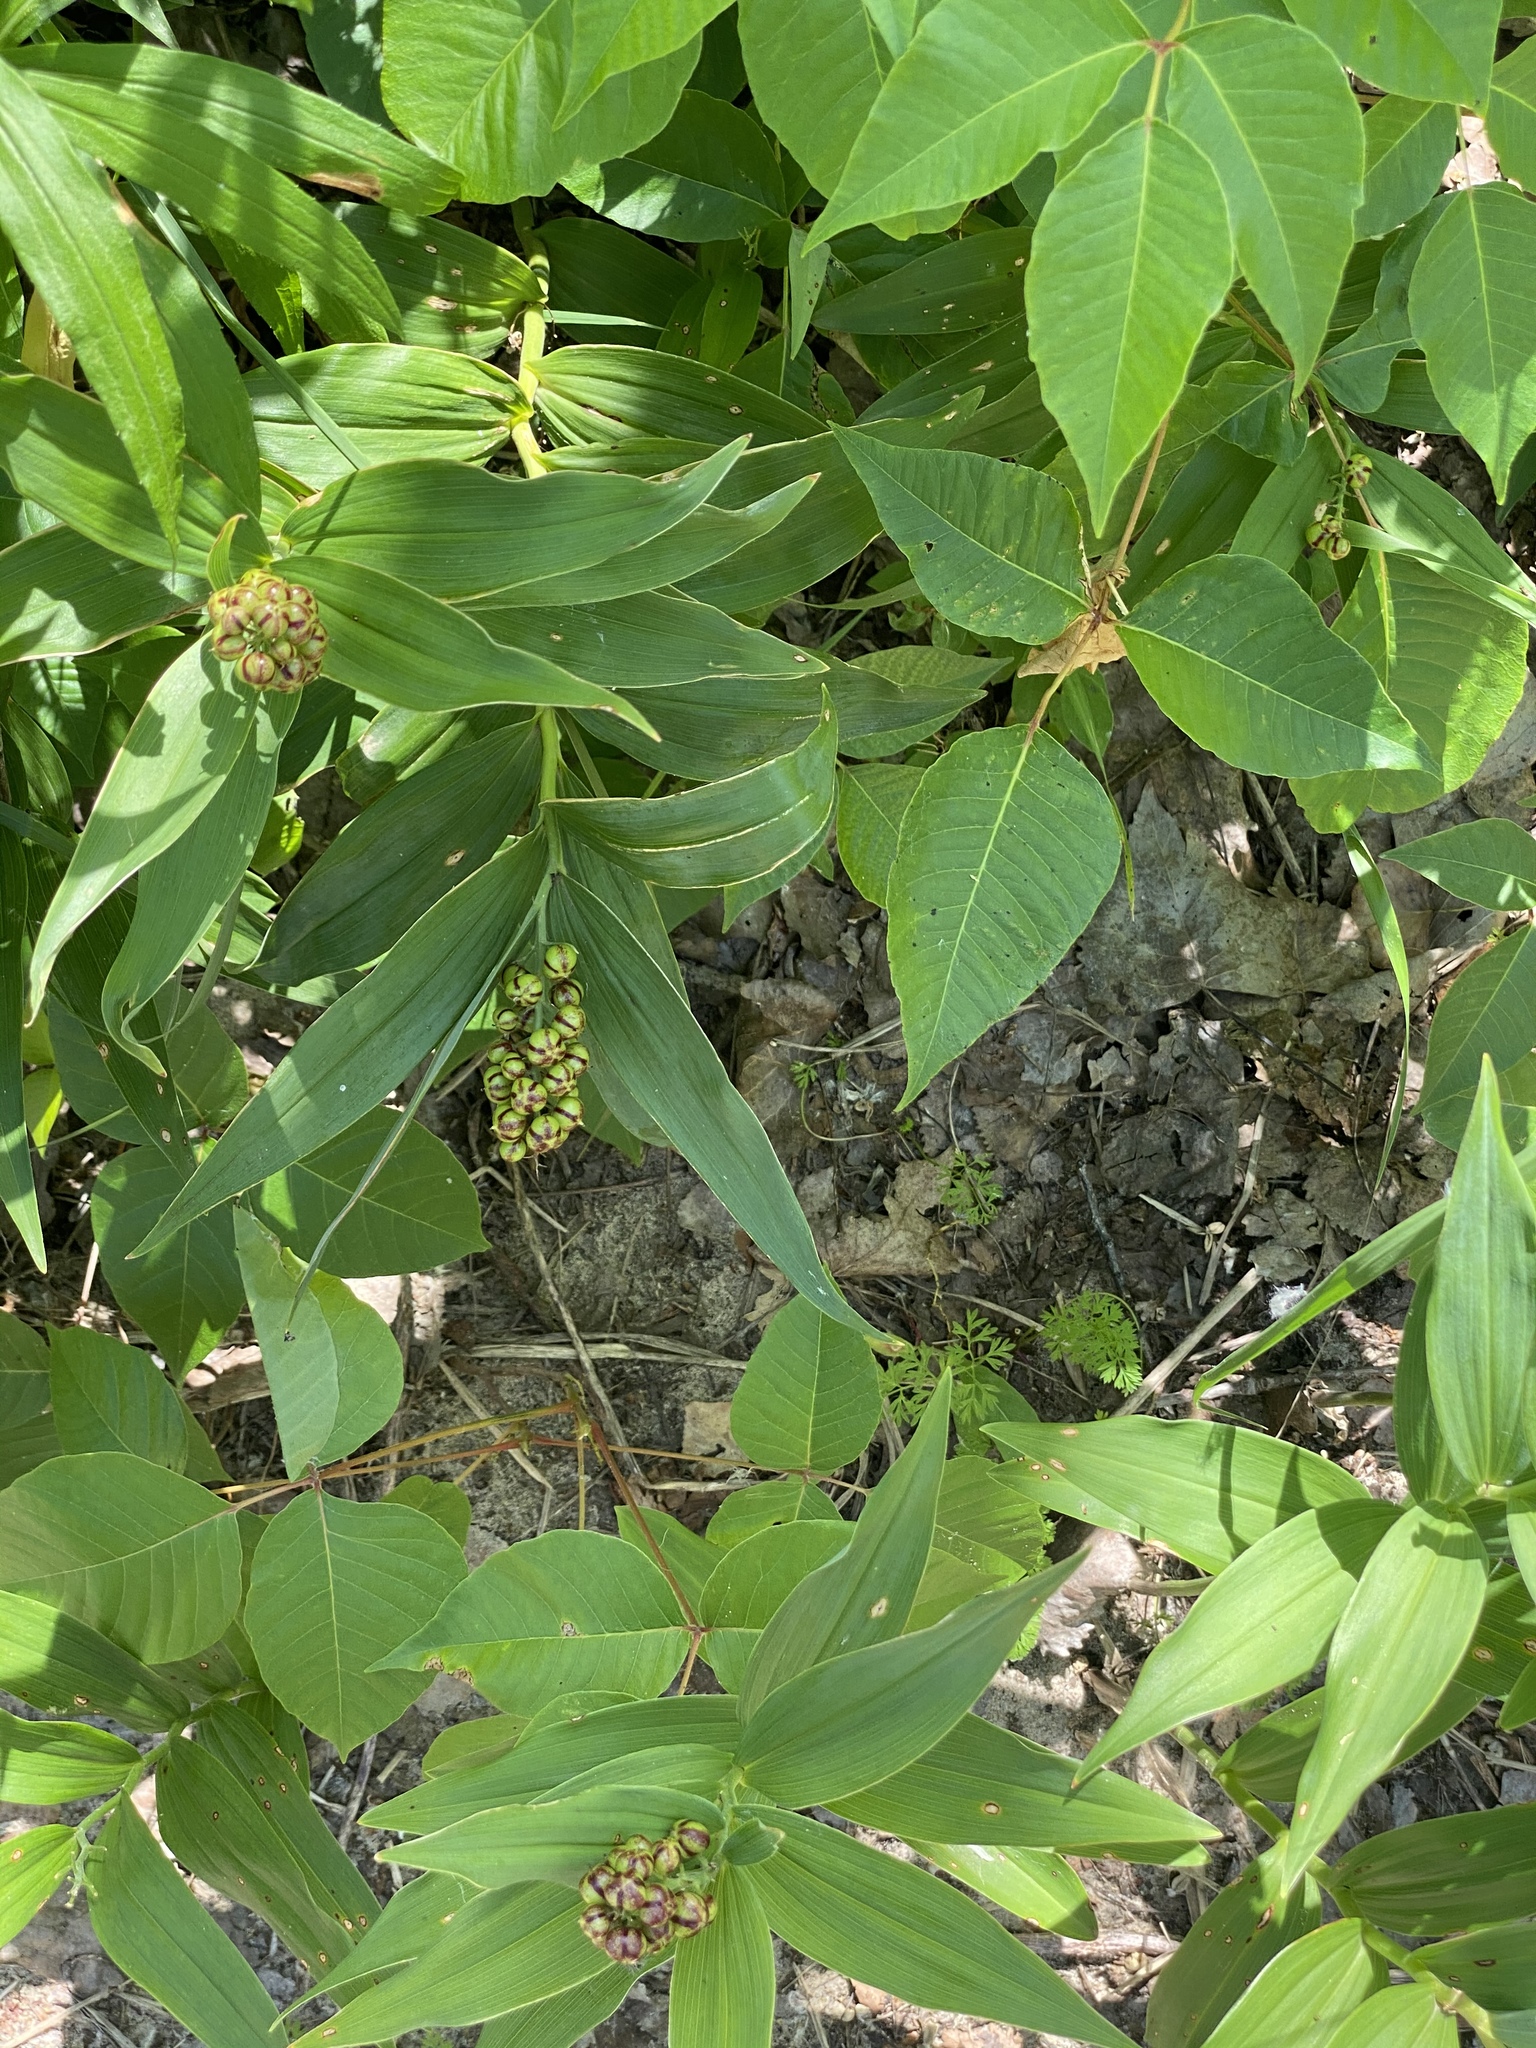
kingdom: Plantae
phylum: Tracheophyta
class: Liliopsida
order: Asparagales
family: Asparagaceae
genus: Maianthemum
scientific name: Maianthemum stellatum
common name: Little false solomon's seal
